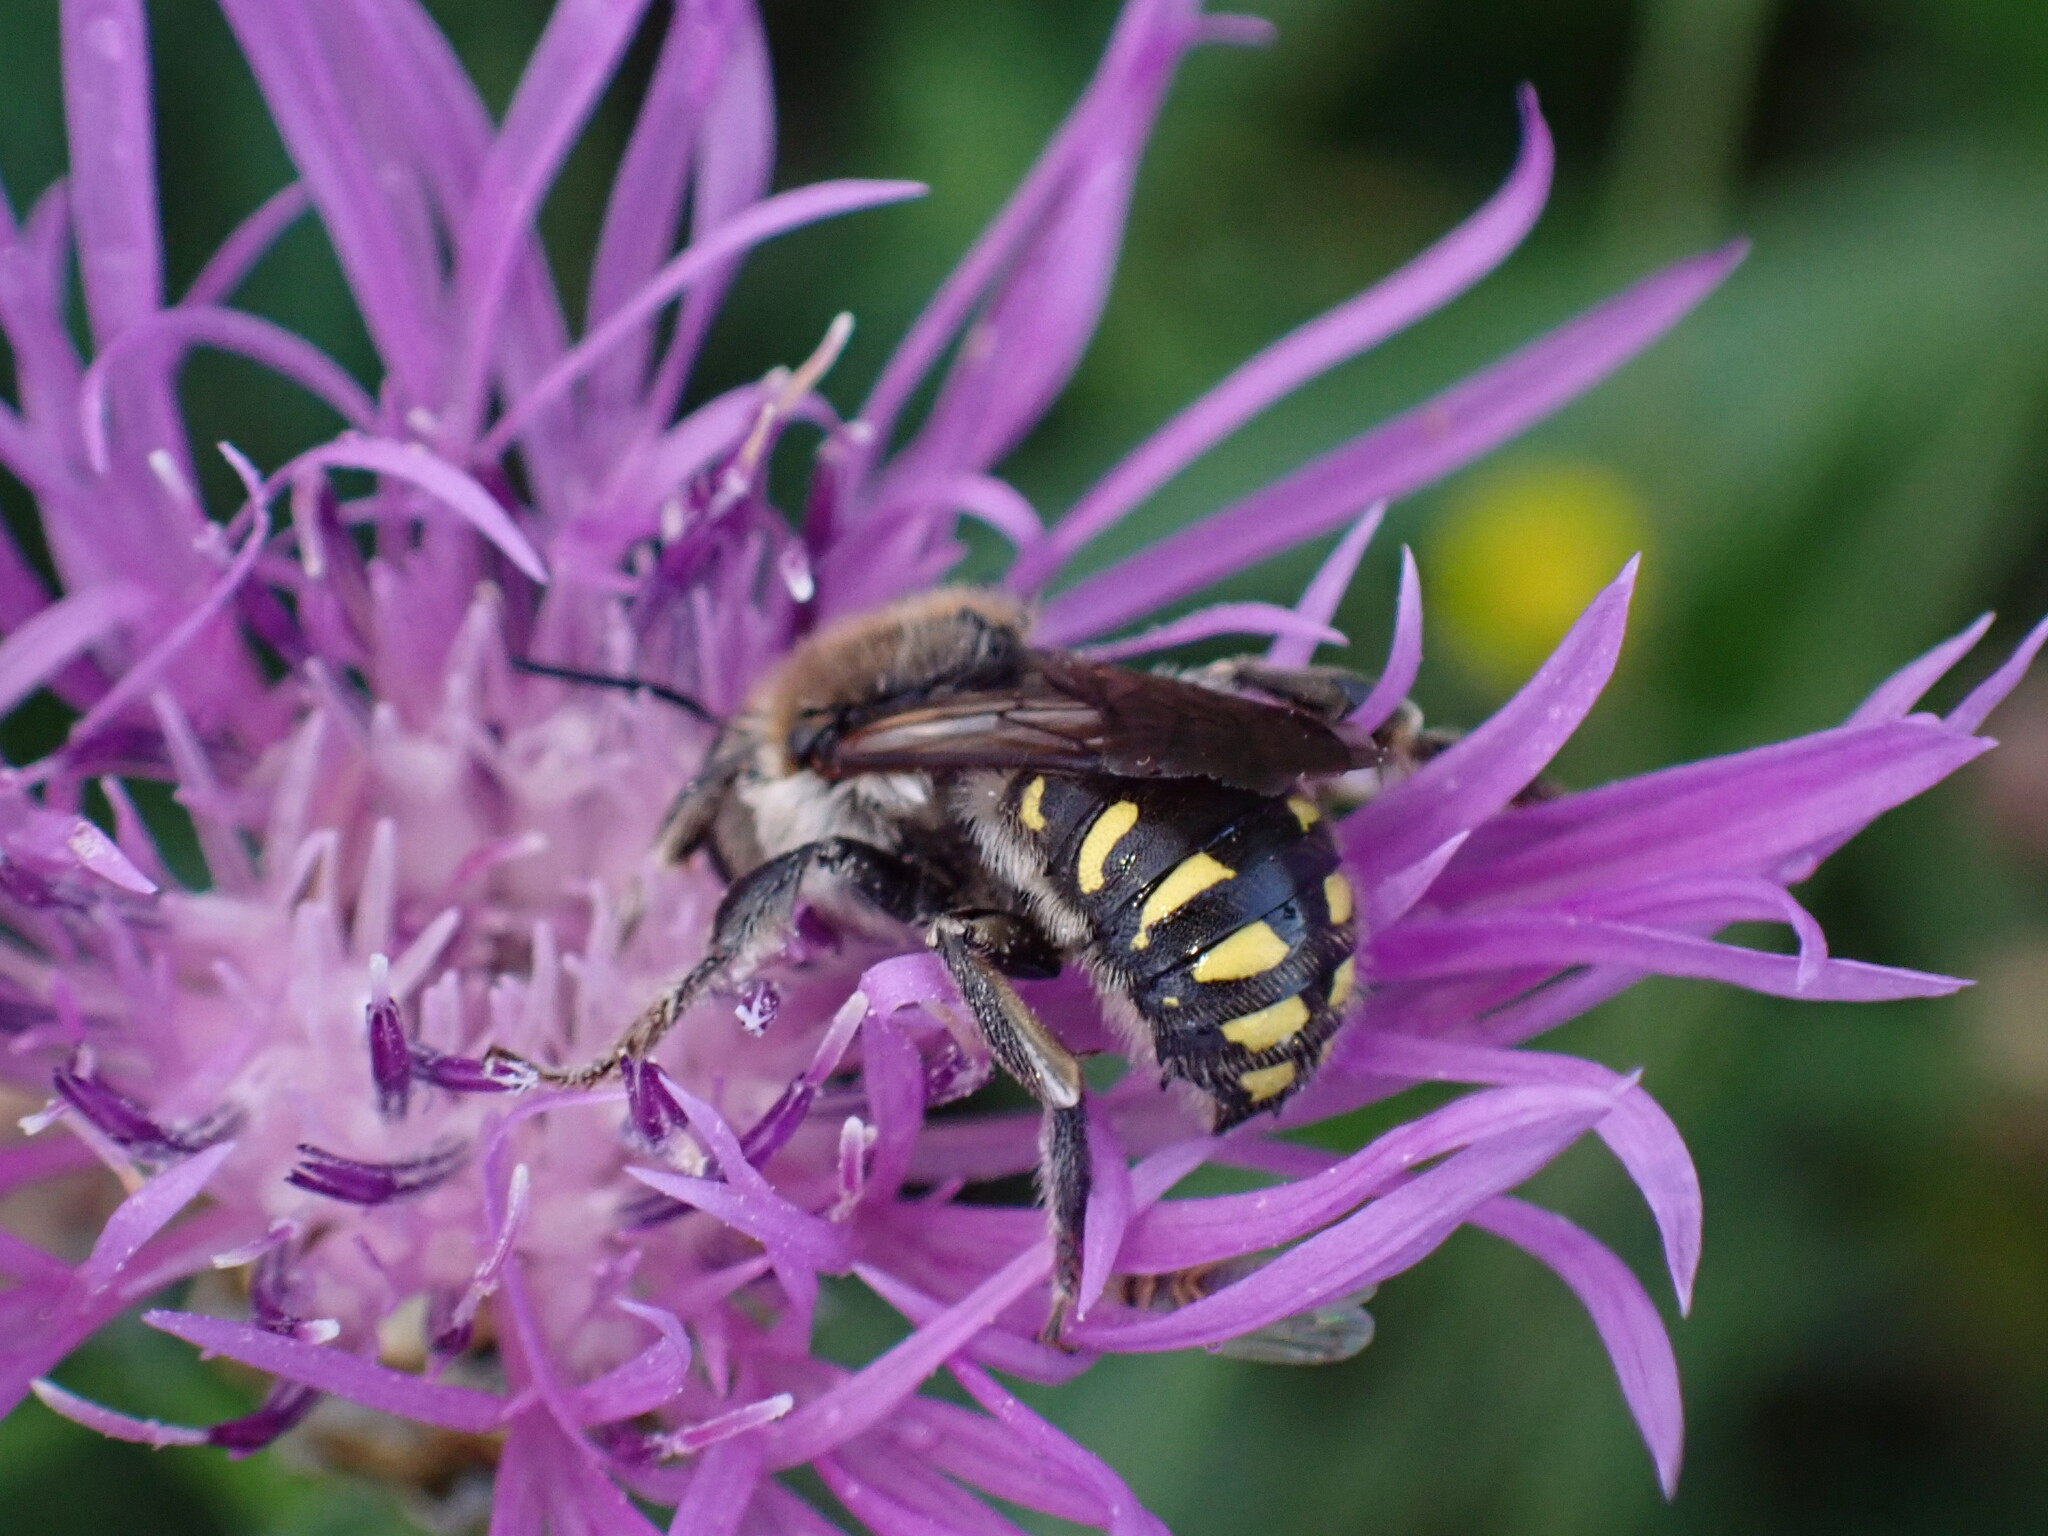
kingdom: Animalia
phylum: Arthropoda
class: Insecta
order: Hymenoptera
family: Megachilidae
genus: Anthidium
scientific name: Anthidium septemspinosum
